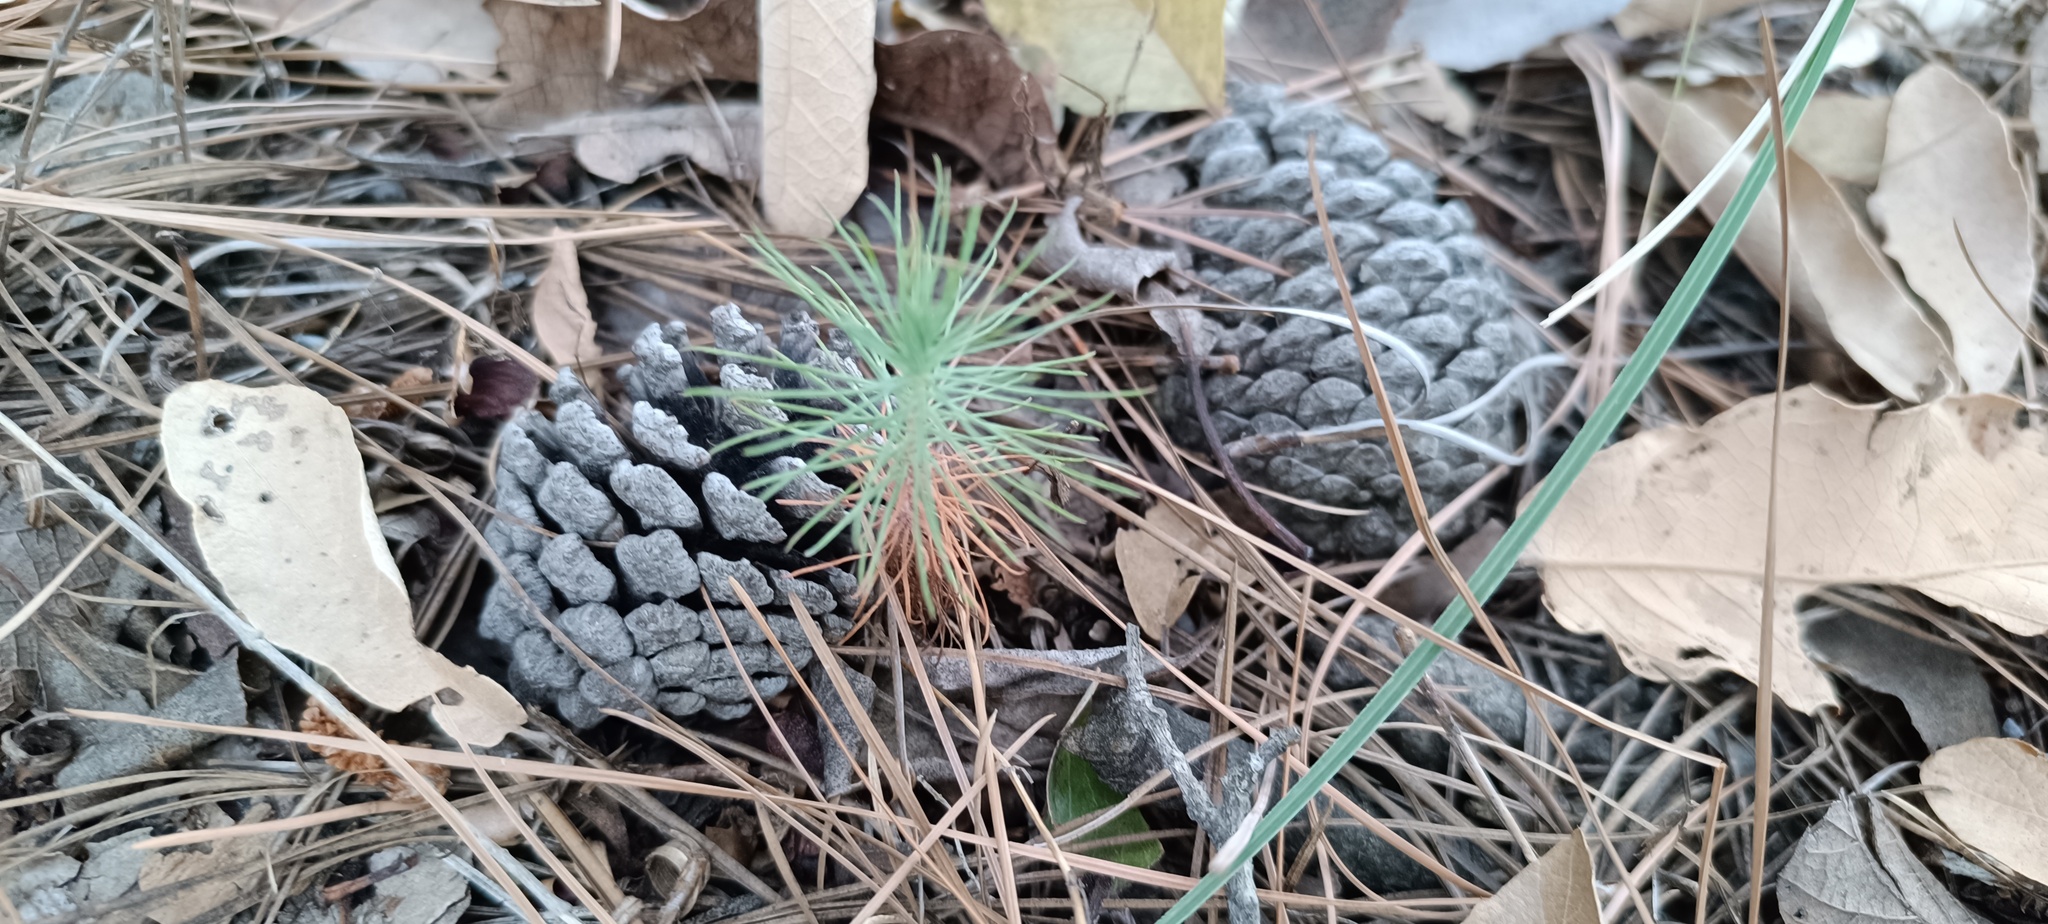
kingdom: Plantae
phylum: Tracheophyta
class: Pinopsida
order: Pinales
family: Pinaceae
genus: Pinus
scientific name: Pinus teocote
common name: Aztec pine
